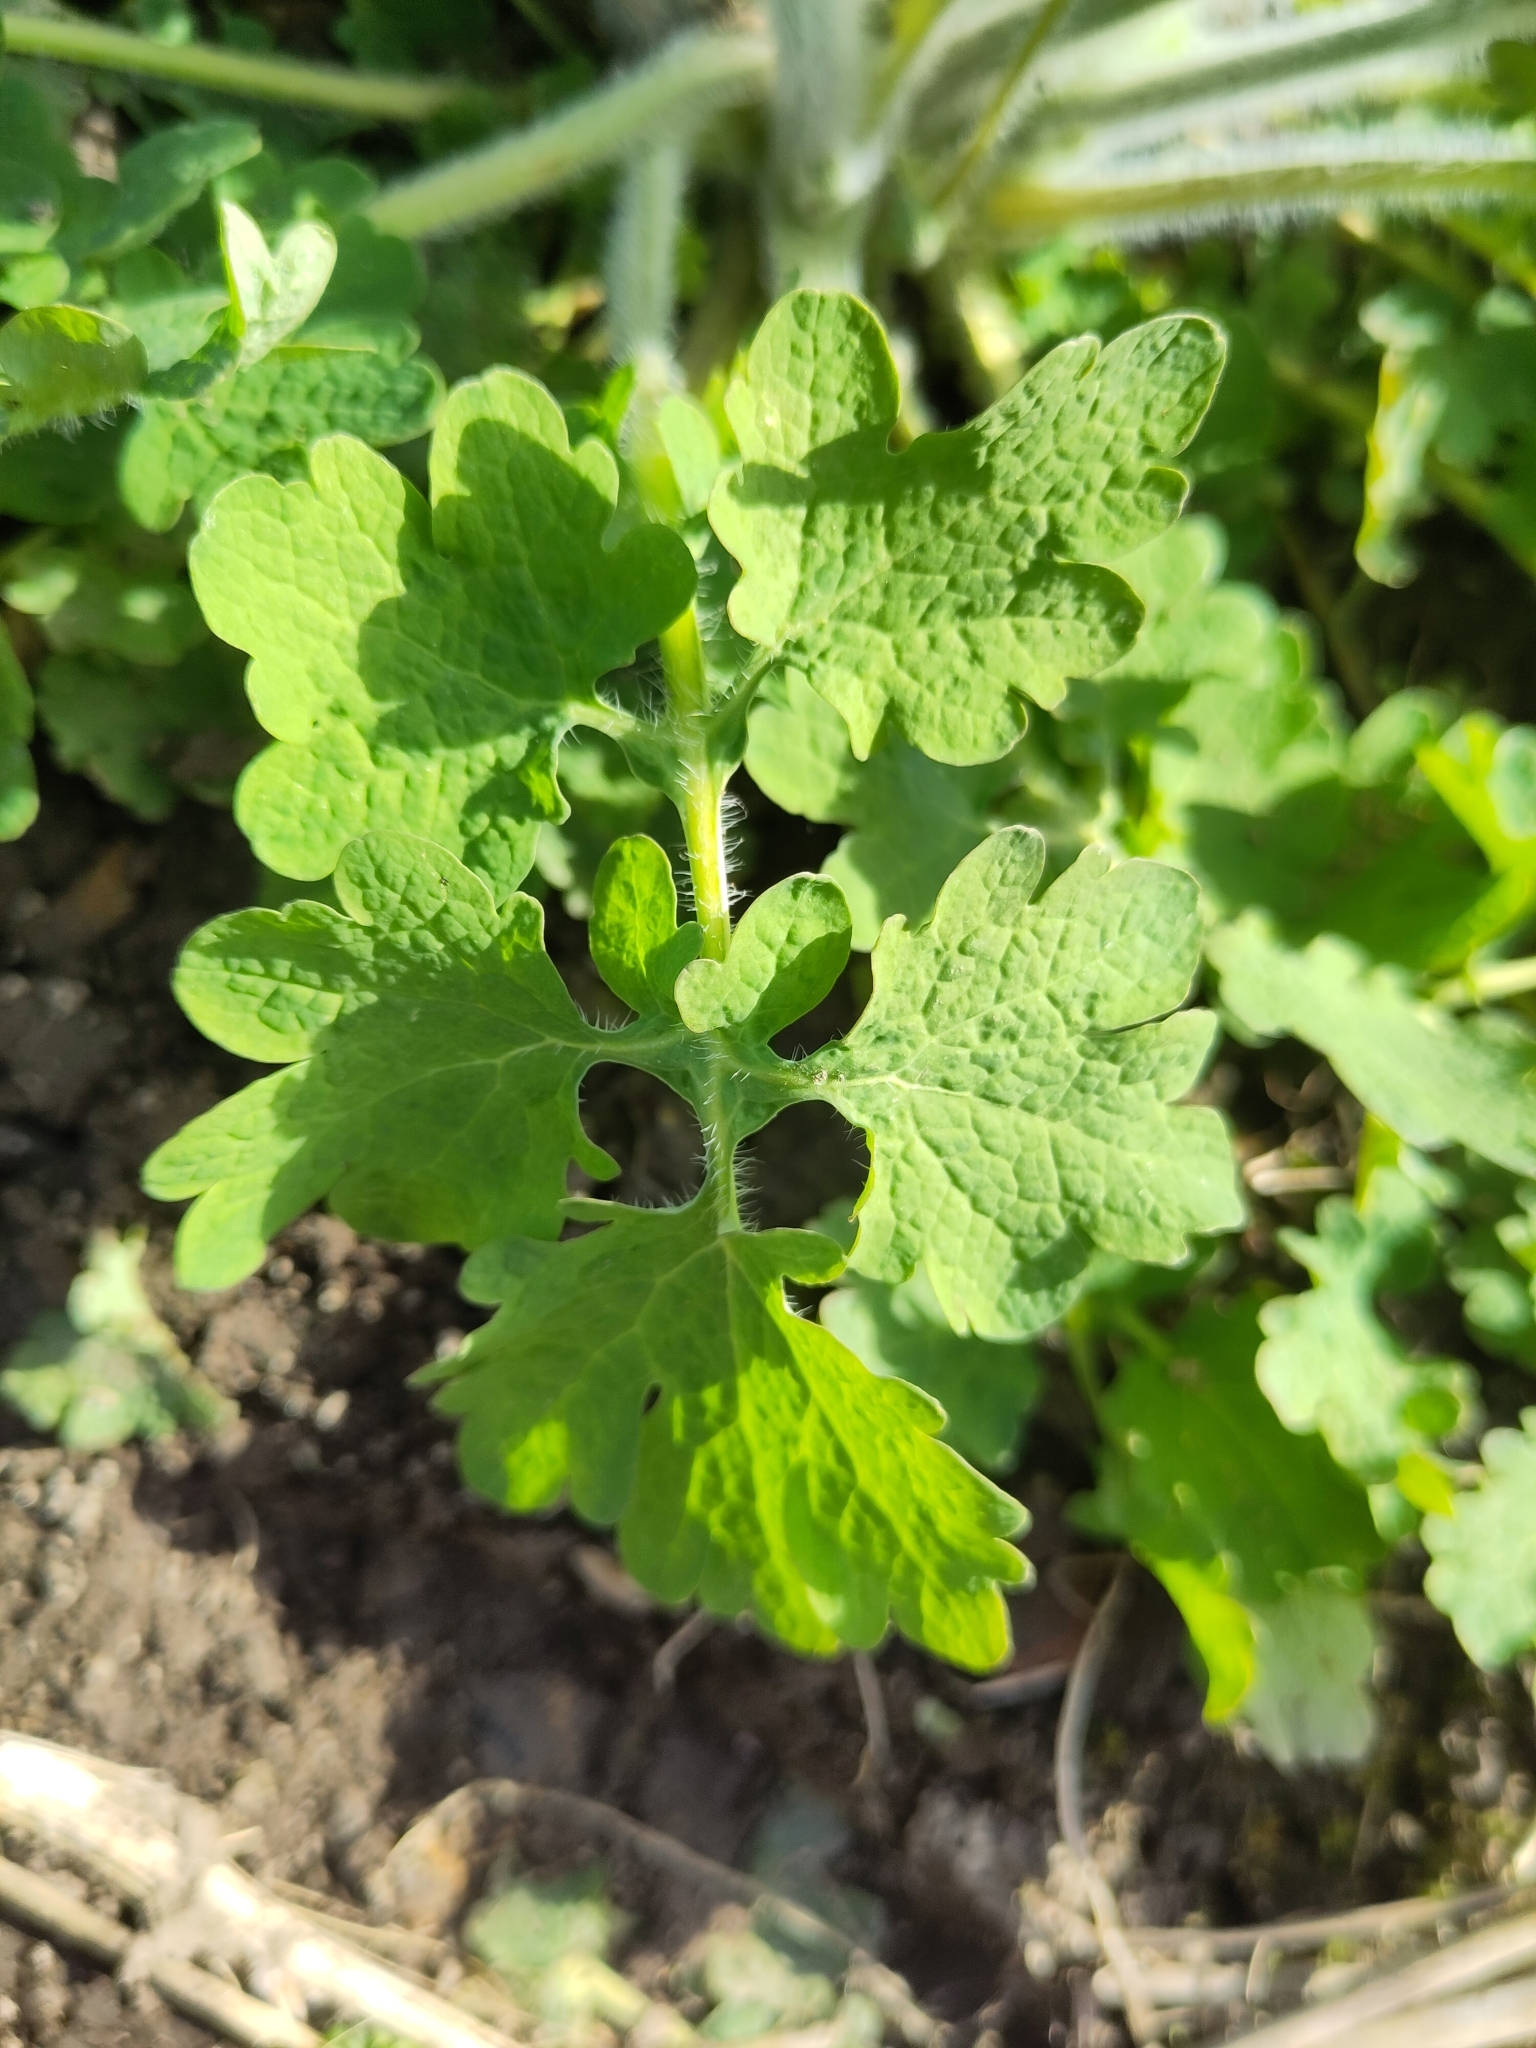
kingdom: Plantae
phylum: Tracheophyta
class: Magnoliopsida
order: Ranunculales
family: Papaveraceae
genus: Chelidonium
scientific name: Chelidonium majus
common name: Greater celandine
